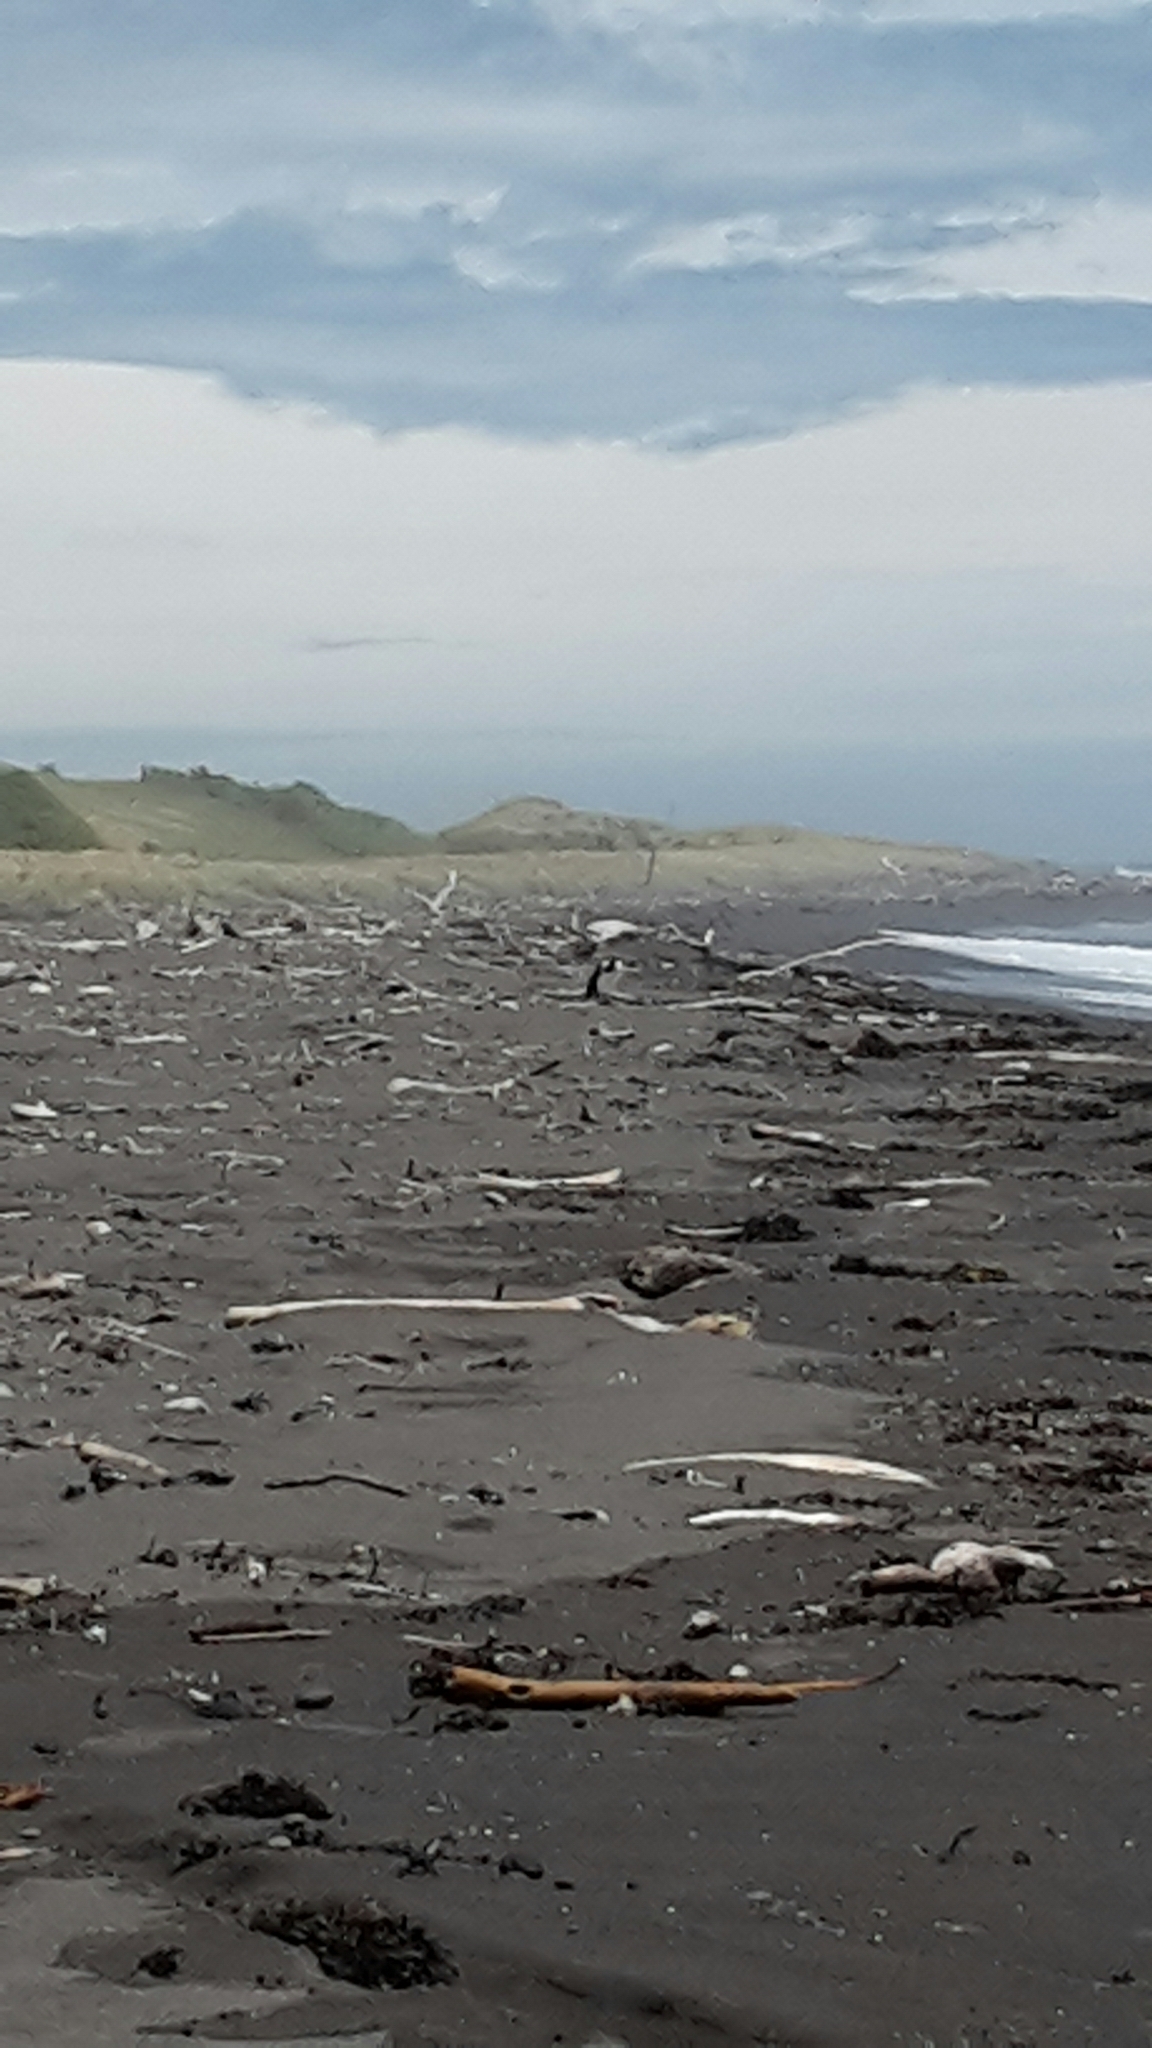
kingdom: Animalia
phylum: Chordata
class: Aves
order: Suliformes
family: Phalacrocoracidae
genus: Phalacrocorax
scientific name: Phalacrocorax varius
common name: Pied cormorant
